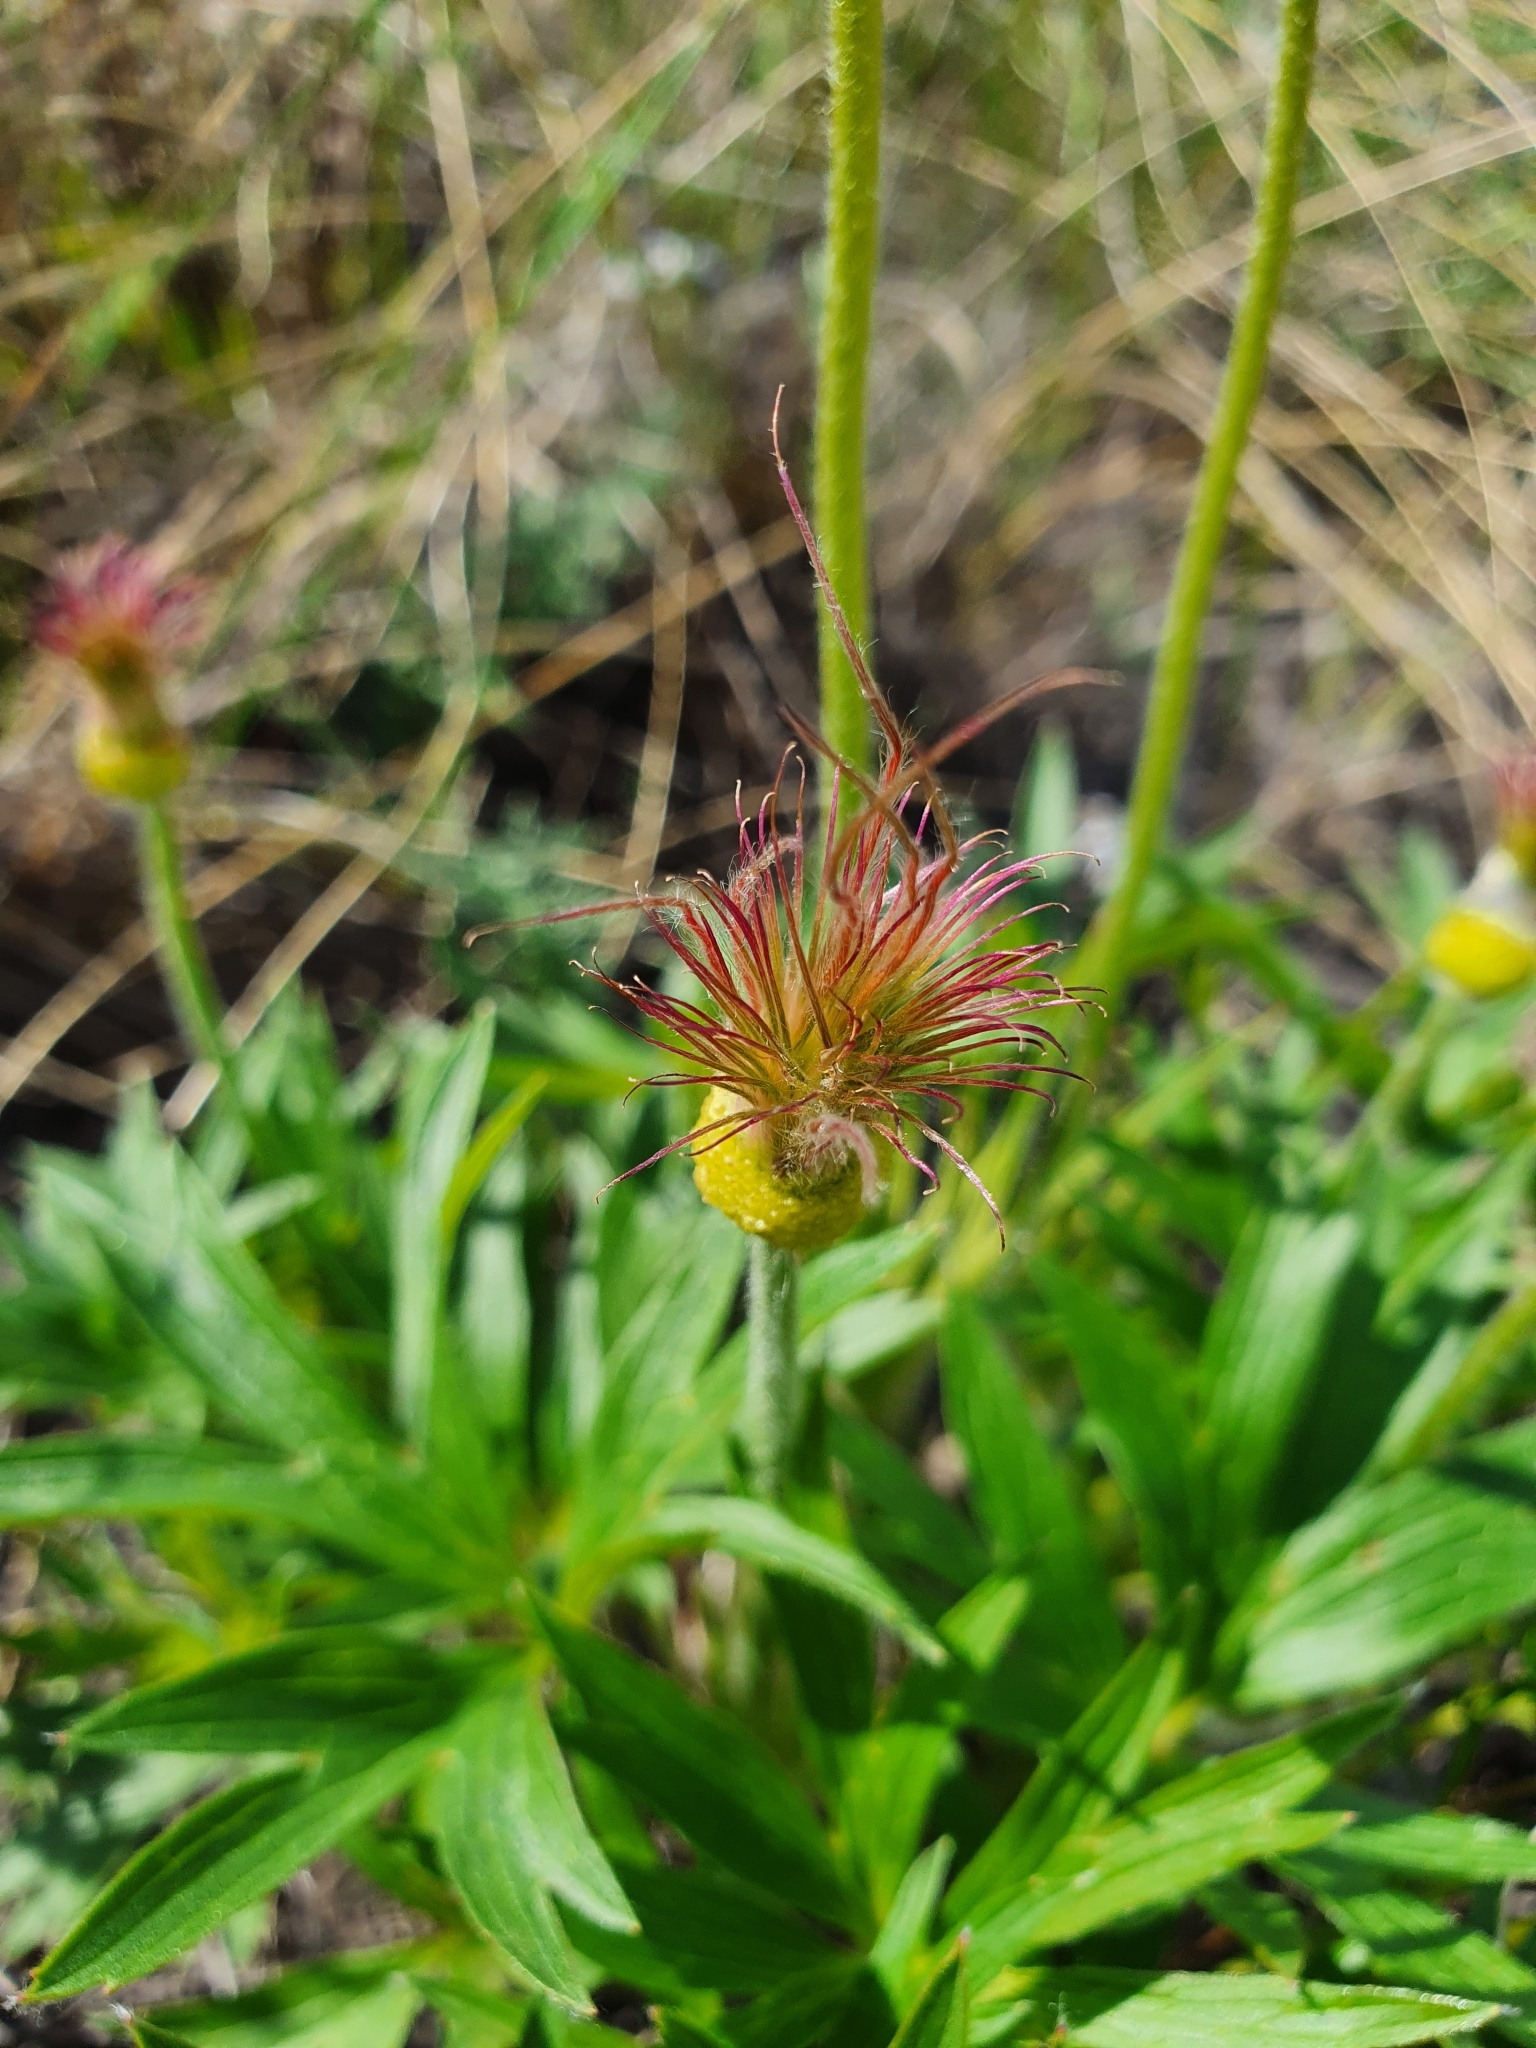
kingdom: Plantae
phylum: Tracheophyta
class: Magnoliopsida
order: Ranunculales
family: Ranunculaceae
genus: Pulsatilla
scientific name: Pulsatilla patens
